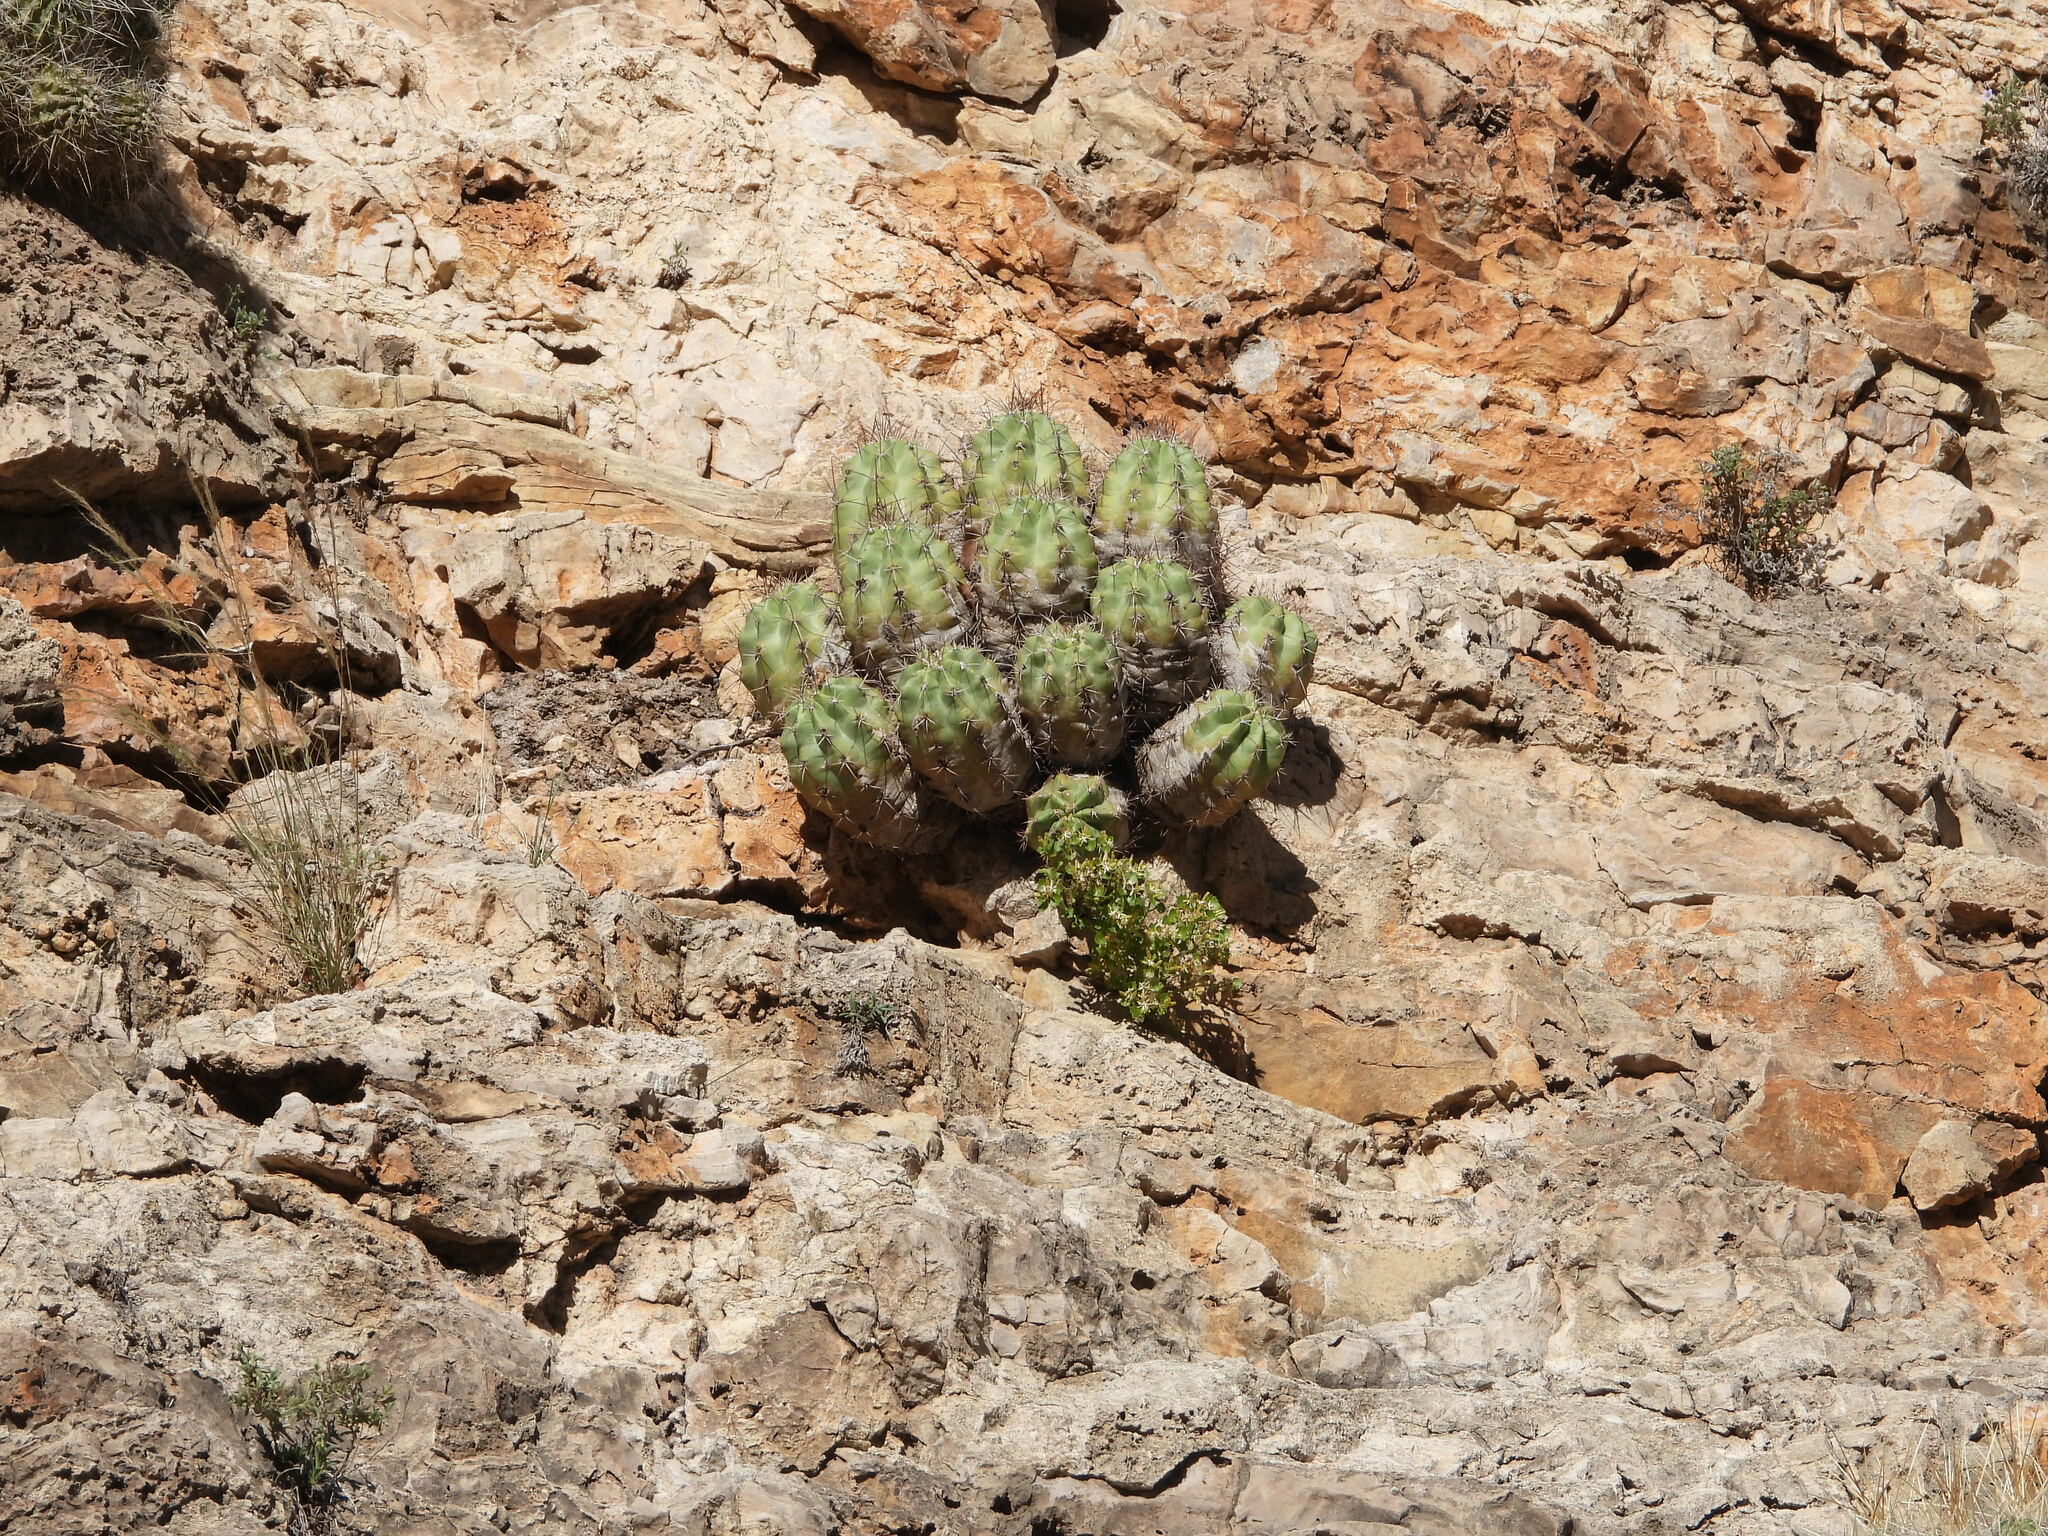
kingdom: Plantae
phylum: Tracheophyta
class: Magnoliopsida
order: Caryophyllales
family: Cactaceae
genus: Echinocereus
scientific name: Echinocereus coccineus
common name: Scarlet hedgehog cactus
